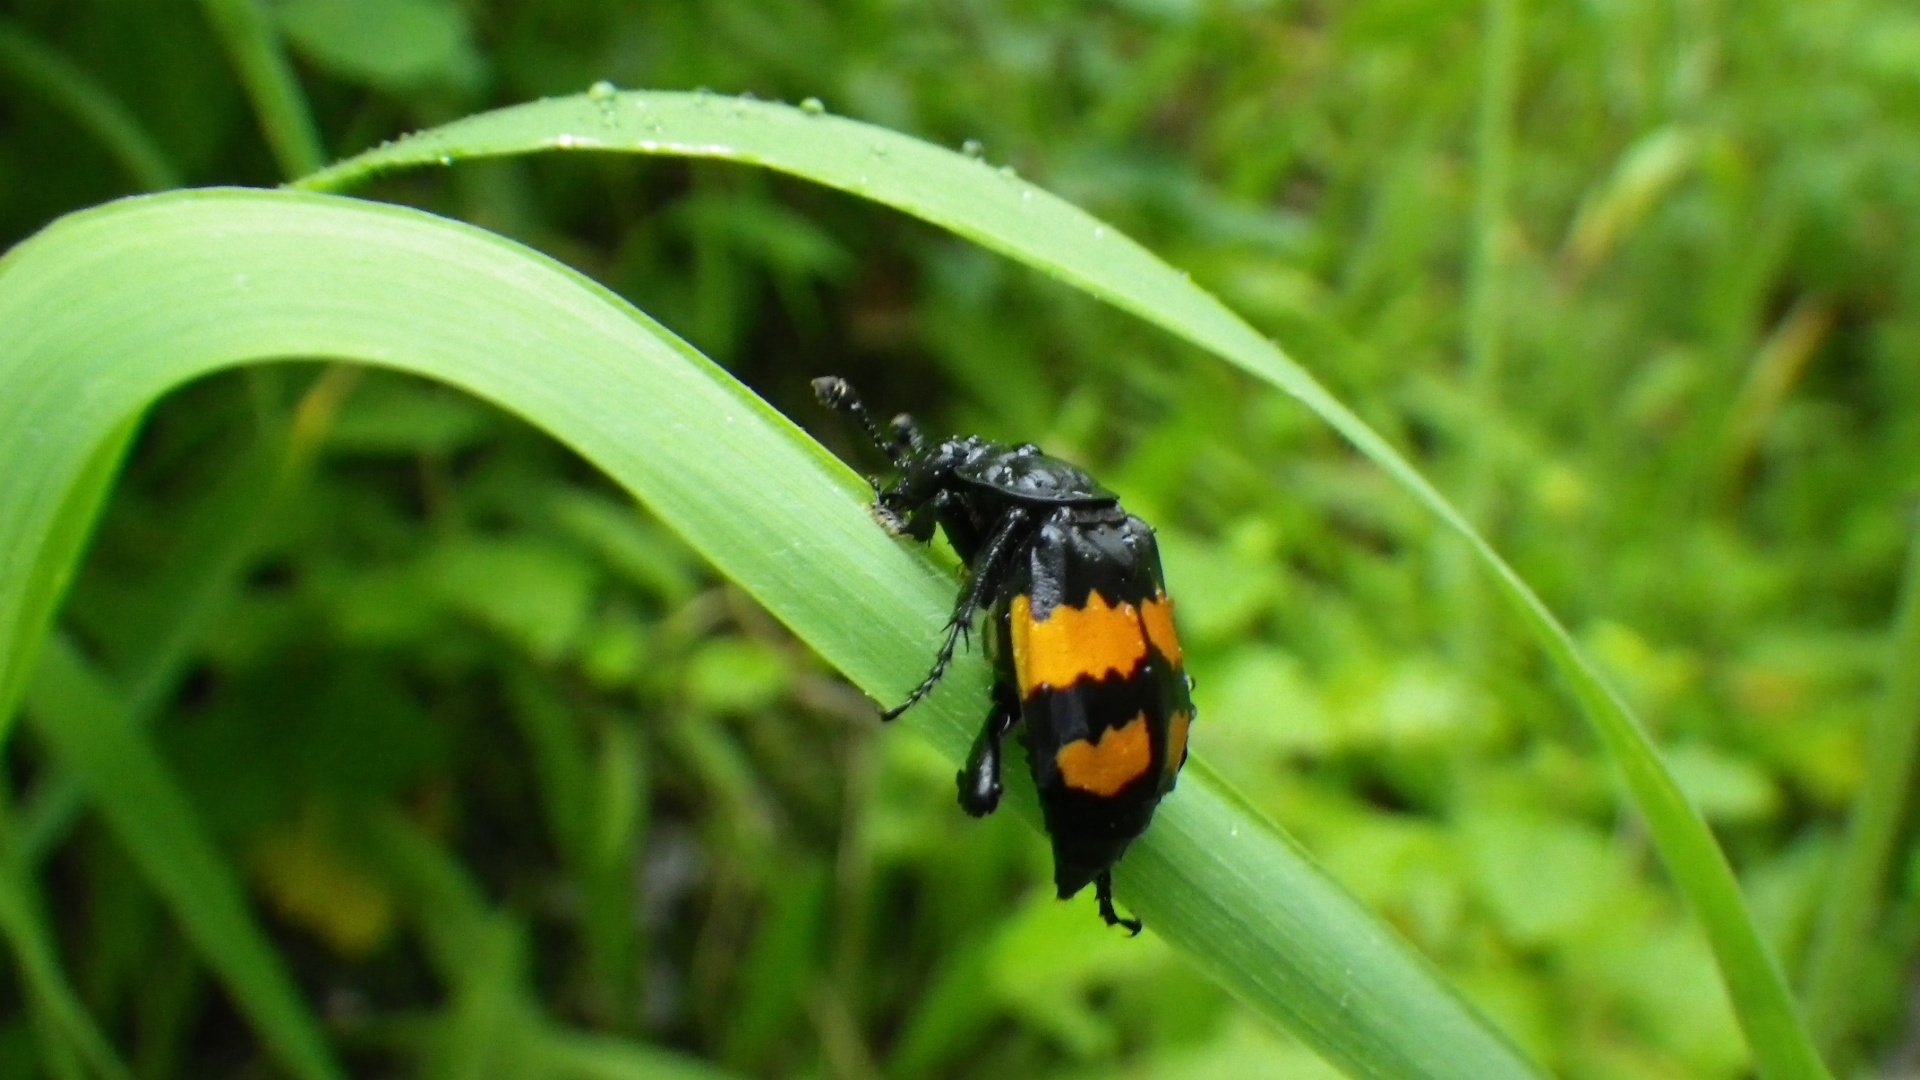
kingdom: Animalia
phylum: Arthropoda
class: Insecta
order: Coleoptera
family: Staphylinidae
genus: Nicrophorus
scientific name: Nicrophorus defodiens
